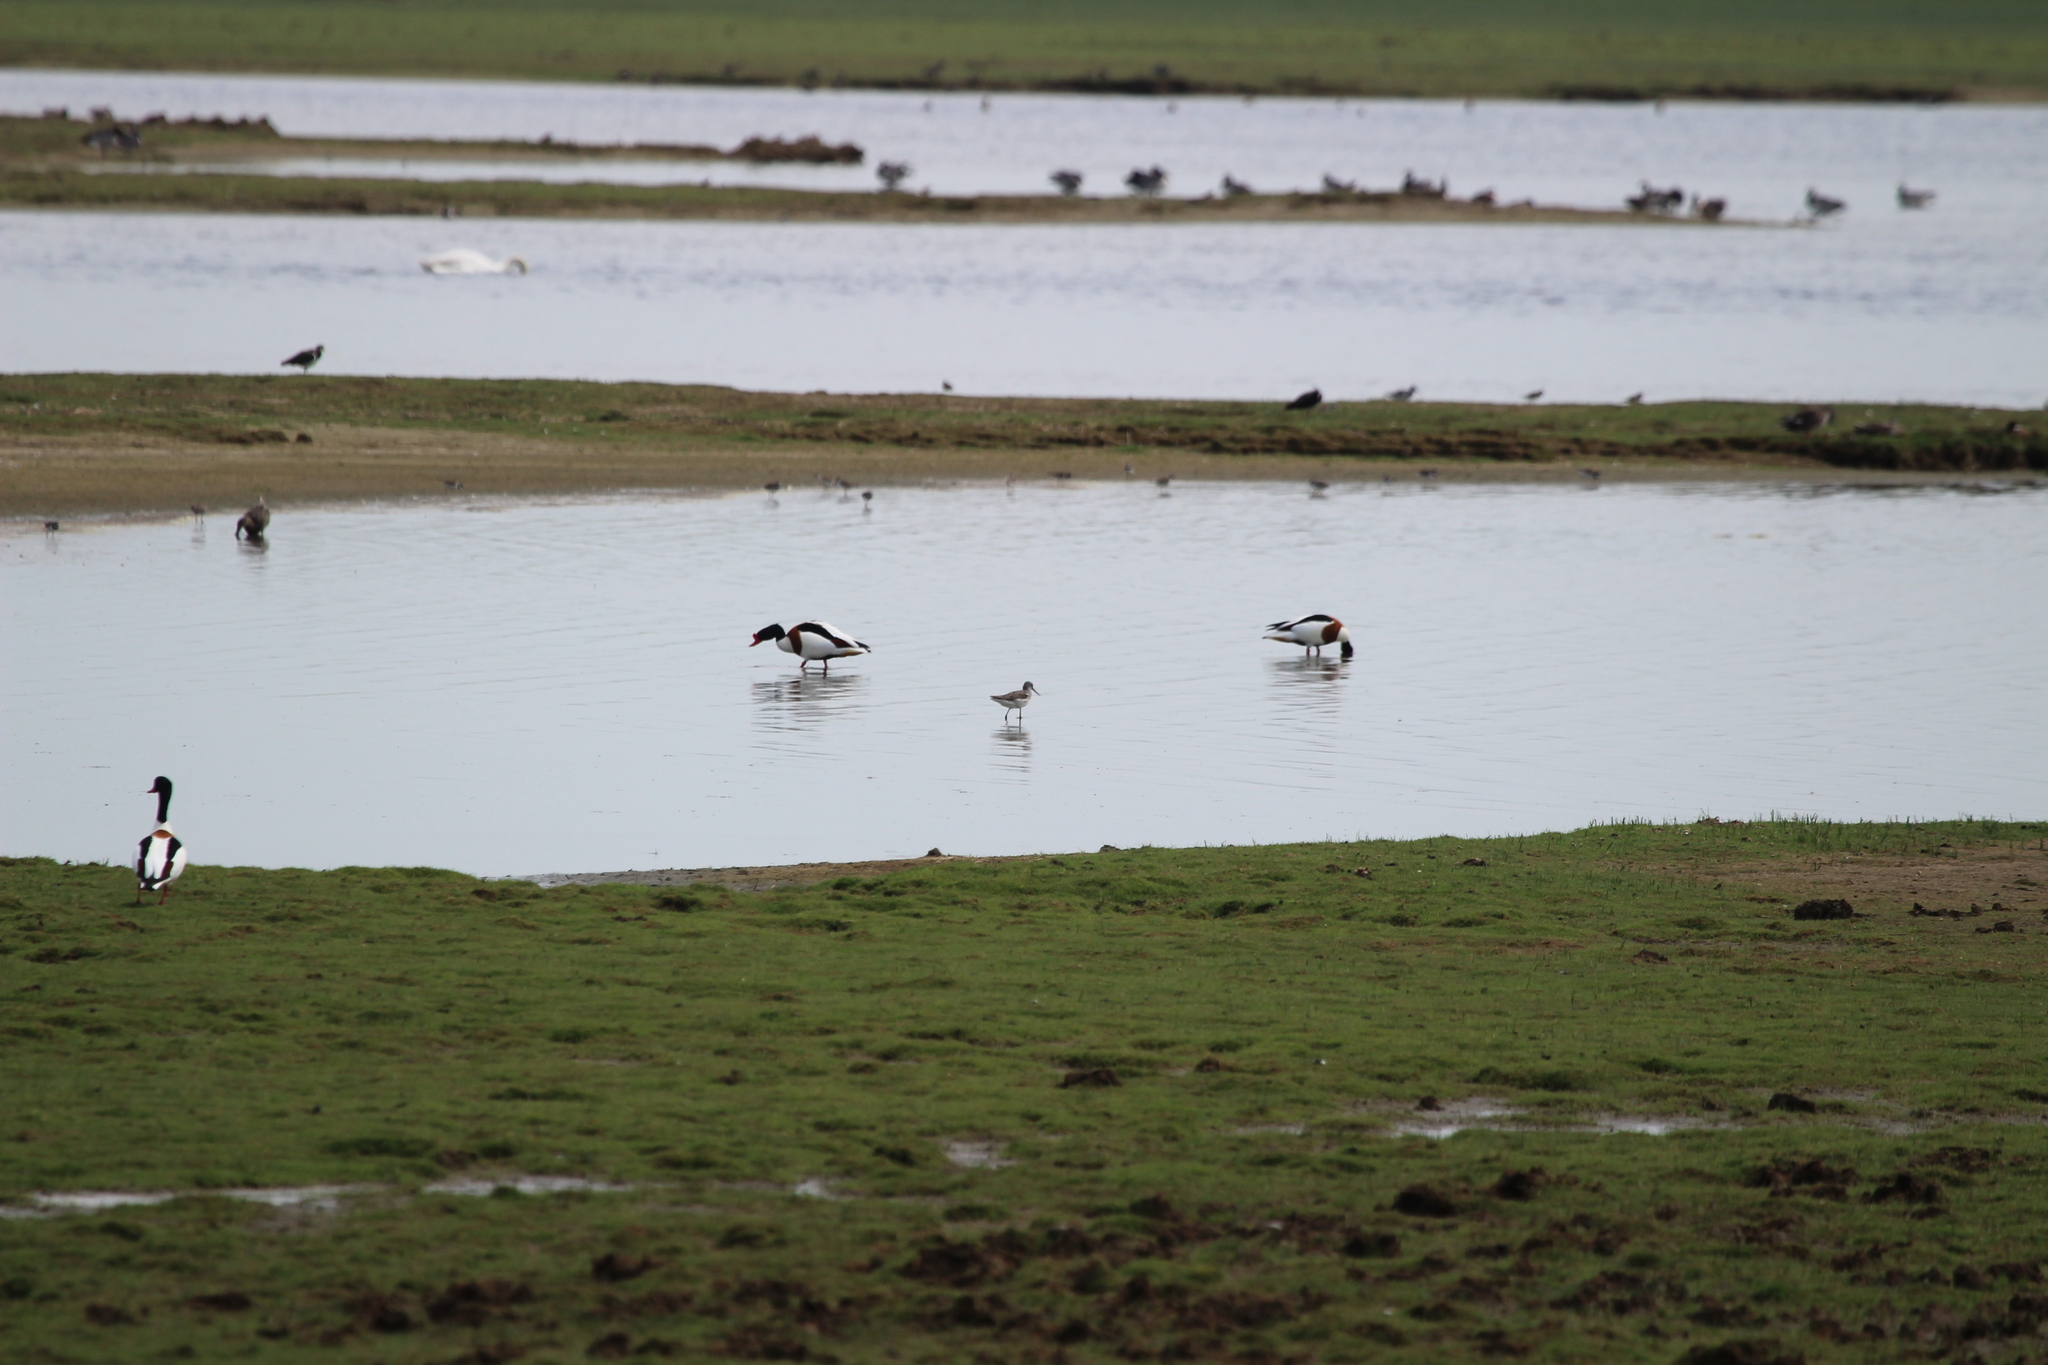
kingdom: Animalia
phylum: Chordata
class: Aves
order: Charadriiformes
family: Scolopacidae
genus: Tringa
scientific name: Tringa nebularia
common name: Common greenshank
